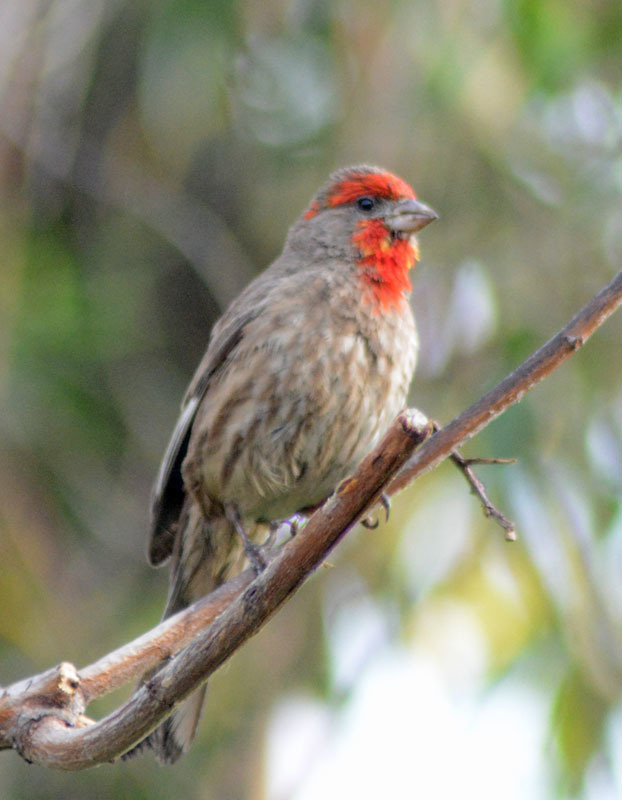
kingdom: Animalia
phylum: Chordata
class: Aves
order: Passeriformes
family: Fringillidae
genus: Haemorhous
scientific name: Haemorhous mexicanus
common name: House finch
